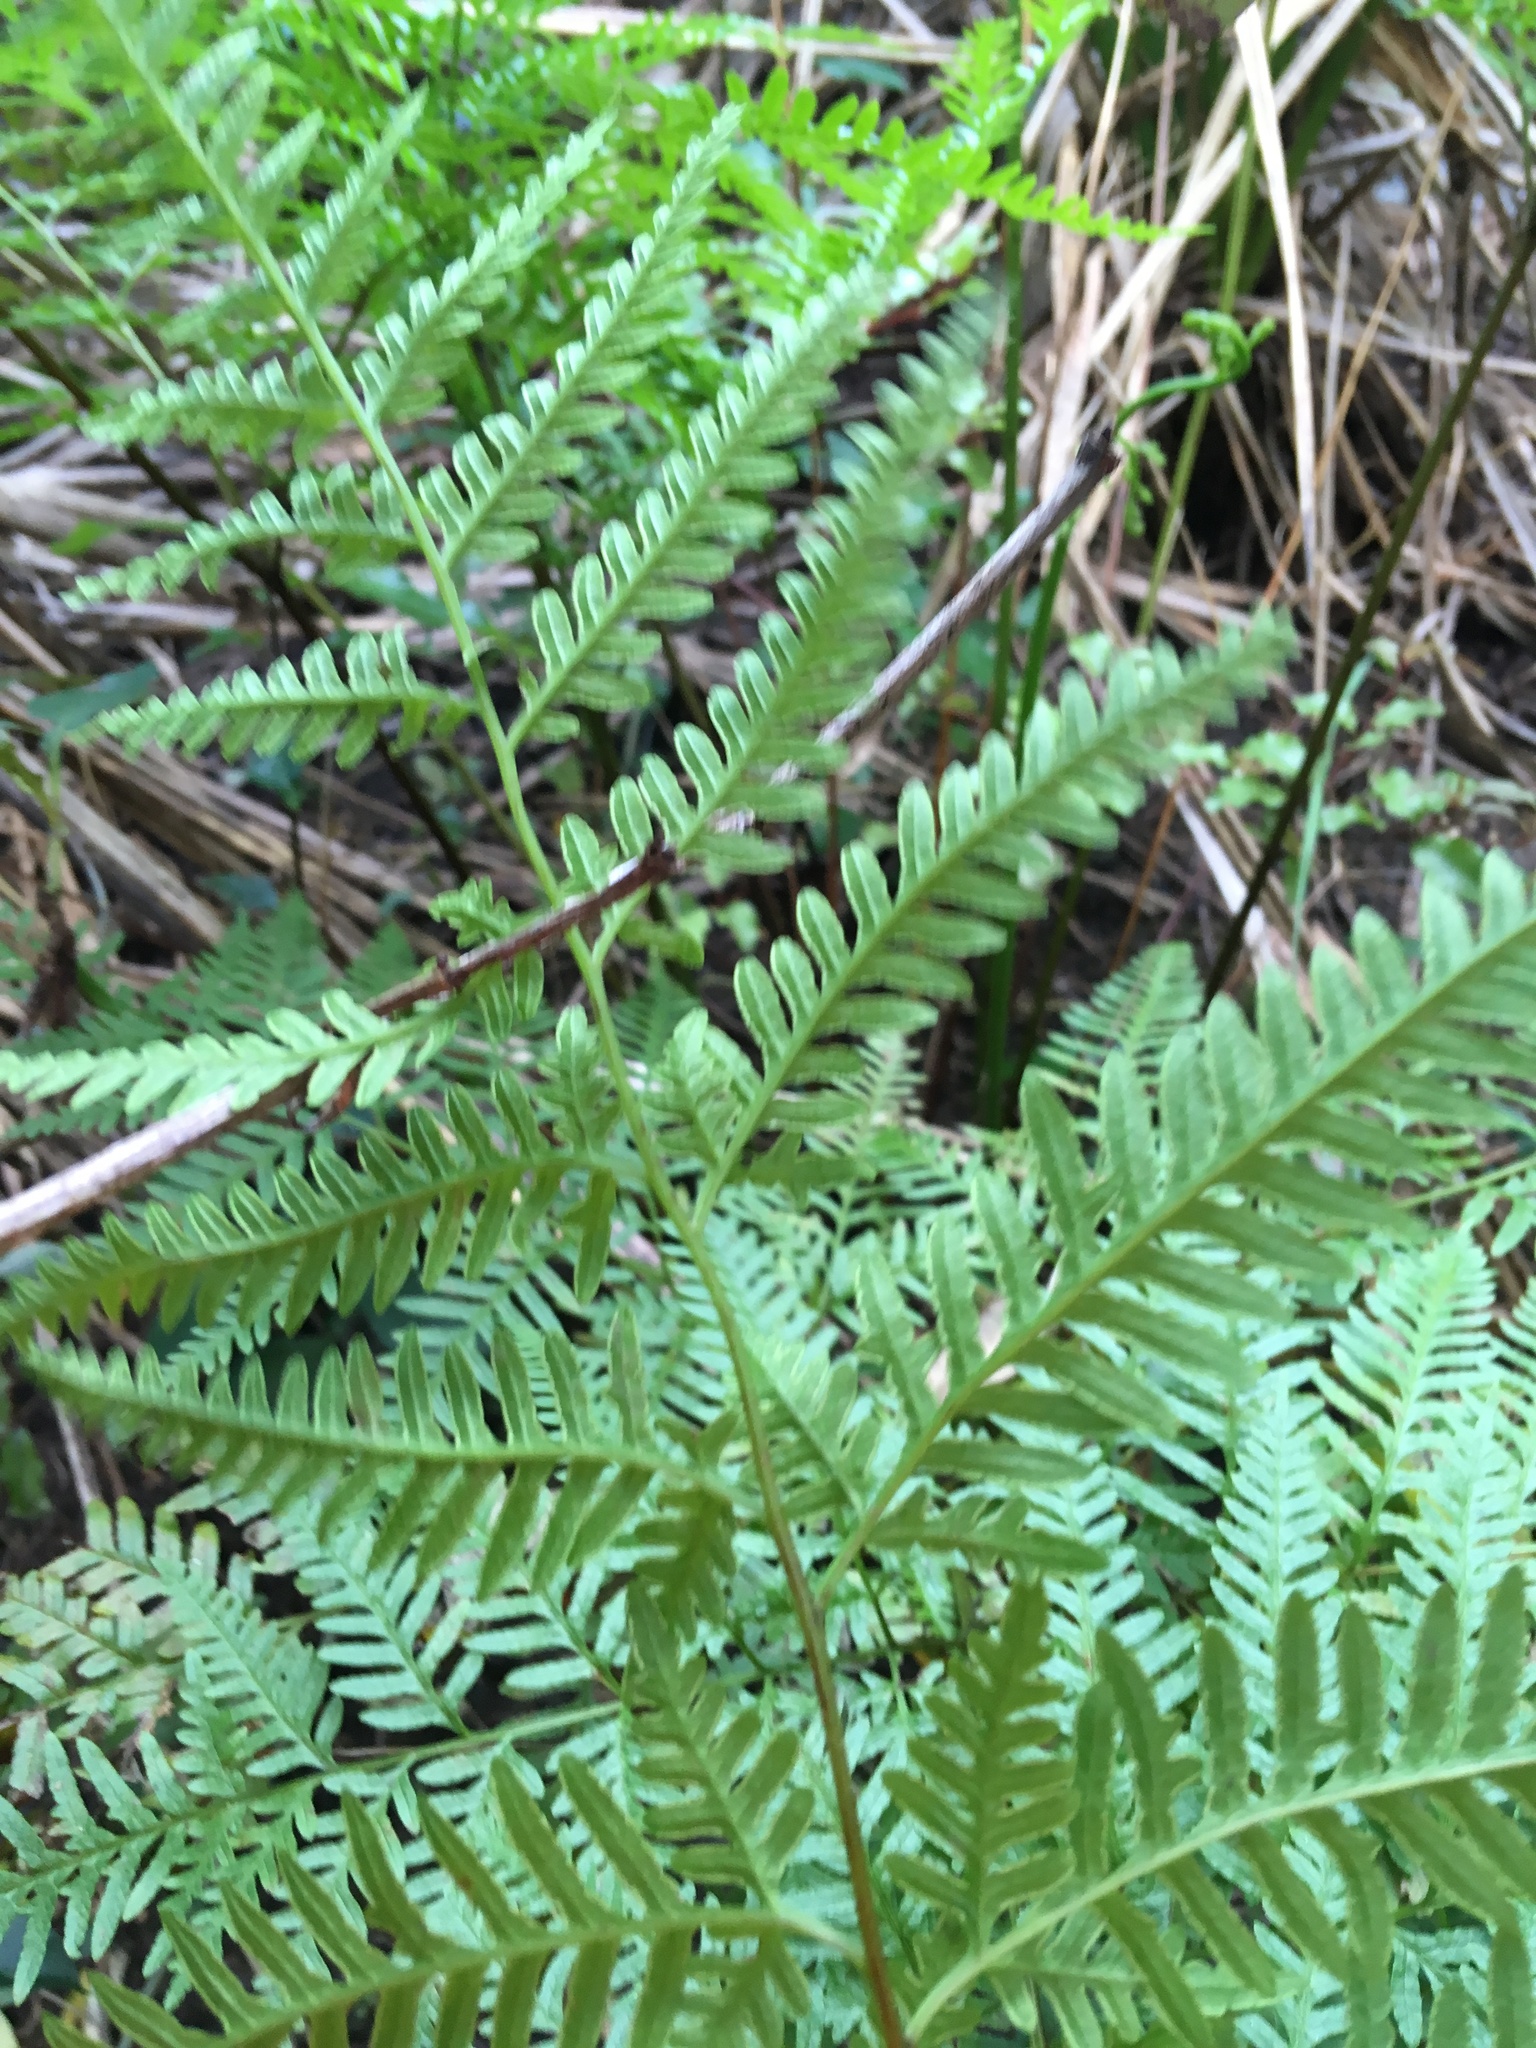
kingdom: Plantae
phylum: Tracheophyta
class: Polypodiopsida
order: Polypodiales
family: Pteridaceae
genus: Pteris
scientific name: Pteris tremula
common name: Australian brake
